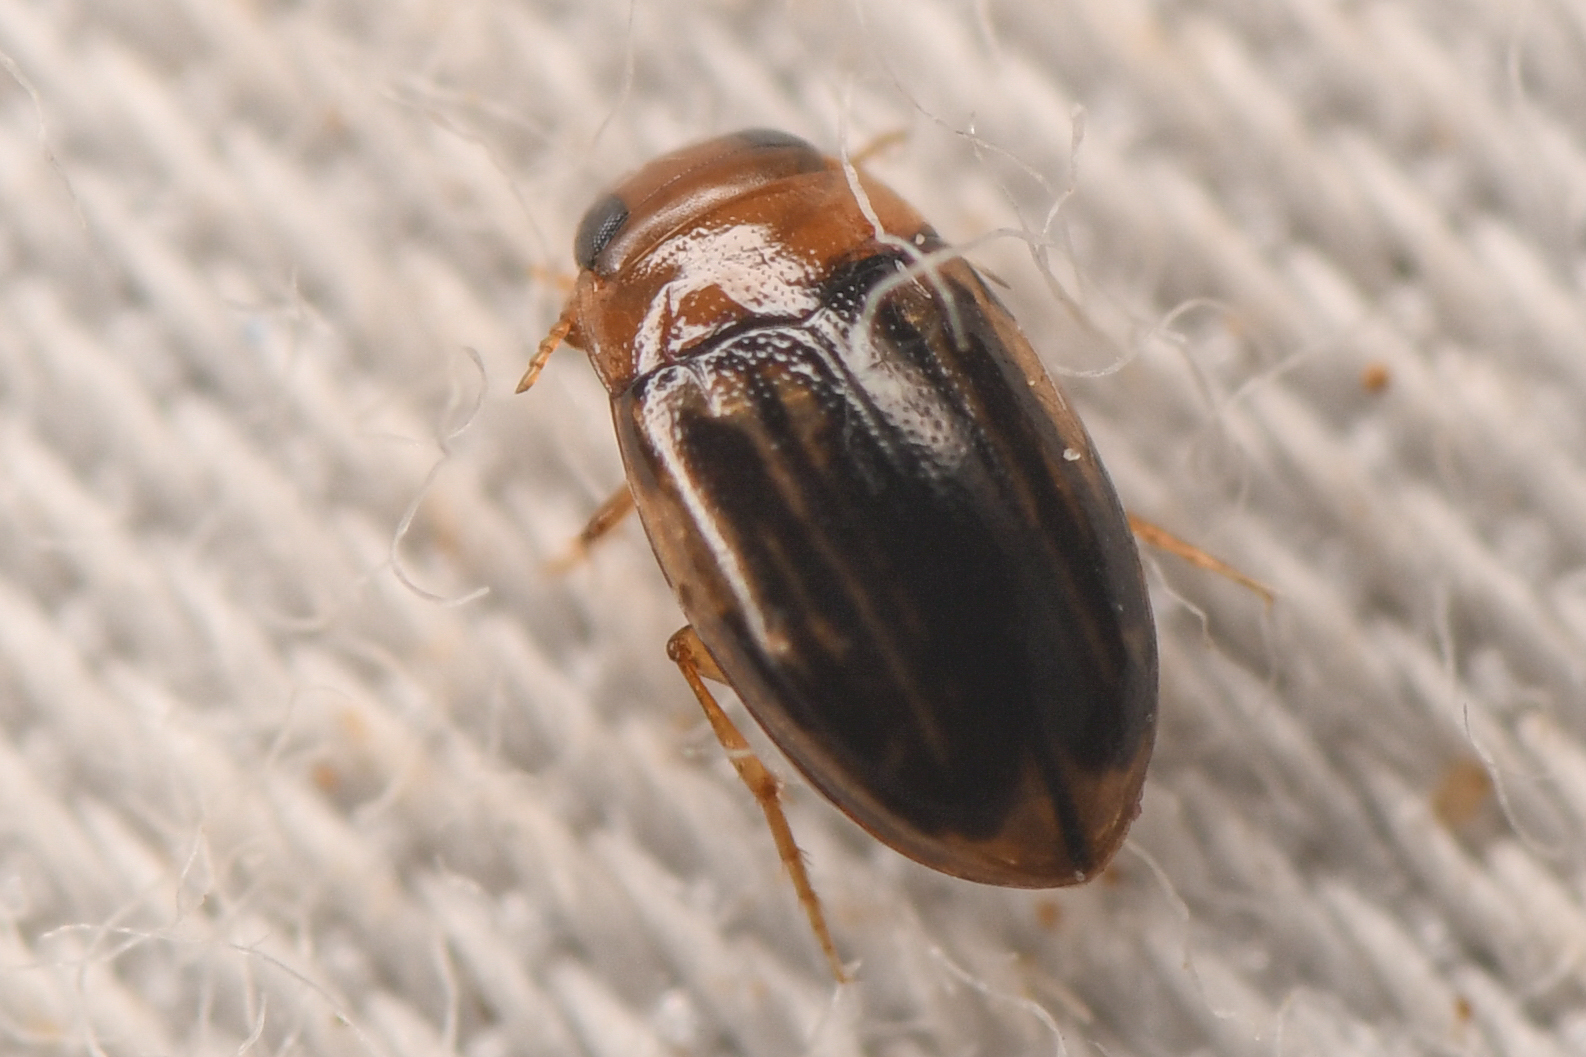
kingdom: Animalia
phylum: Arthropoda
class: Insecta
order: Coleoptera
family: Dytiscidae
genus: Neobidessus
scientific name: Neobidessus
